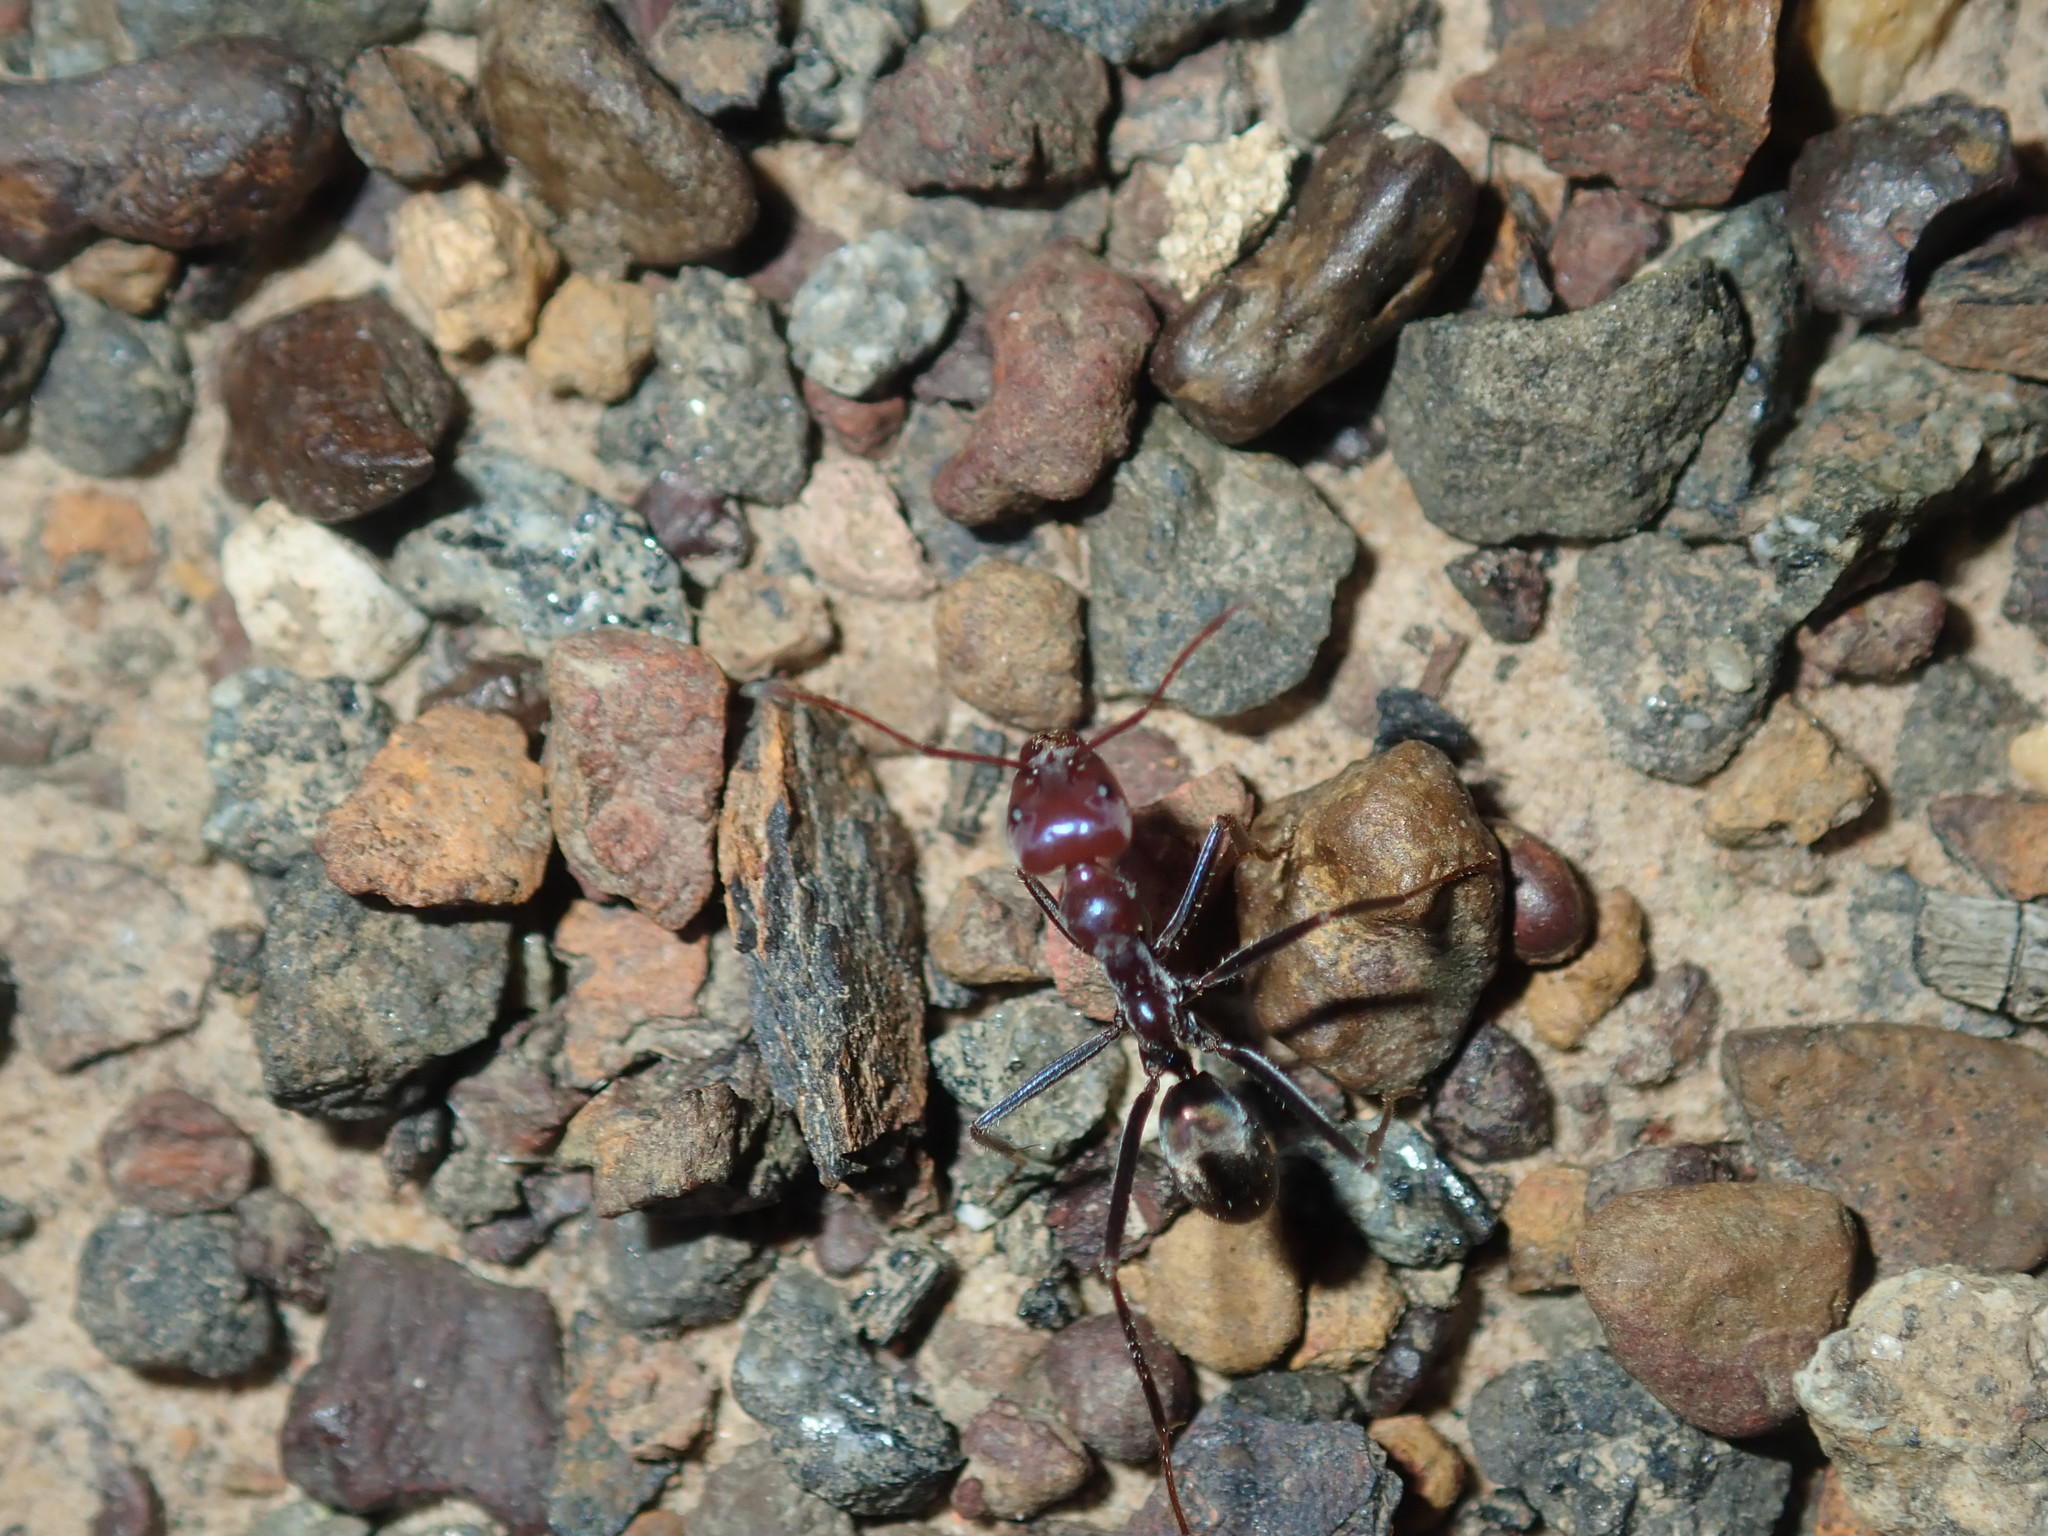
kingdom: Animalia
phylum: Arthropoda
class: Insecta
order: Hymenoptera
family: Formicidae
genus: Iridomyrmex
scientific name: Iridomyrmex purpureus
